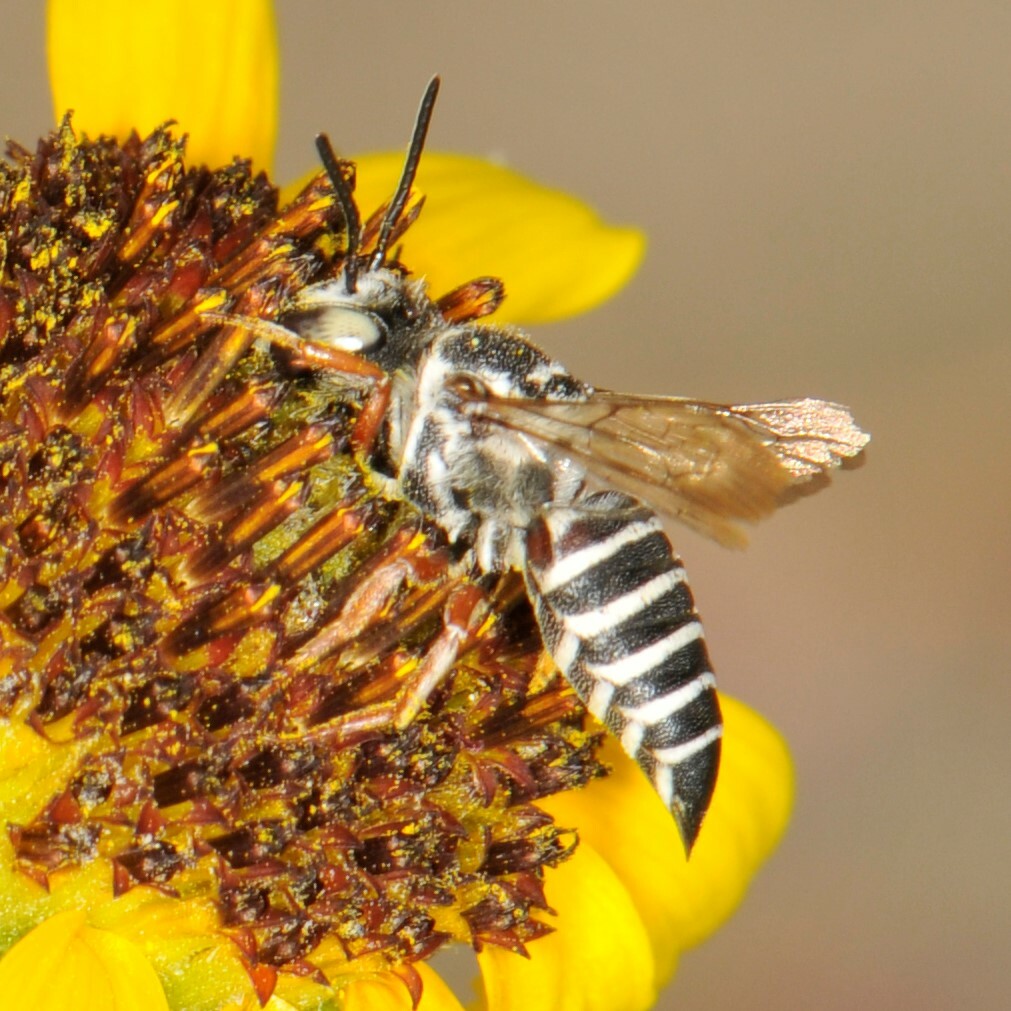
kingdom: Animalia
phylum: Arthropoda
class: Insecta
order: Hymenoptera
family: Megachilidae
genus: Coelioxys
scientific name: Coelioxys
